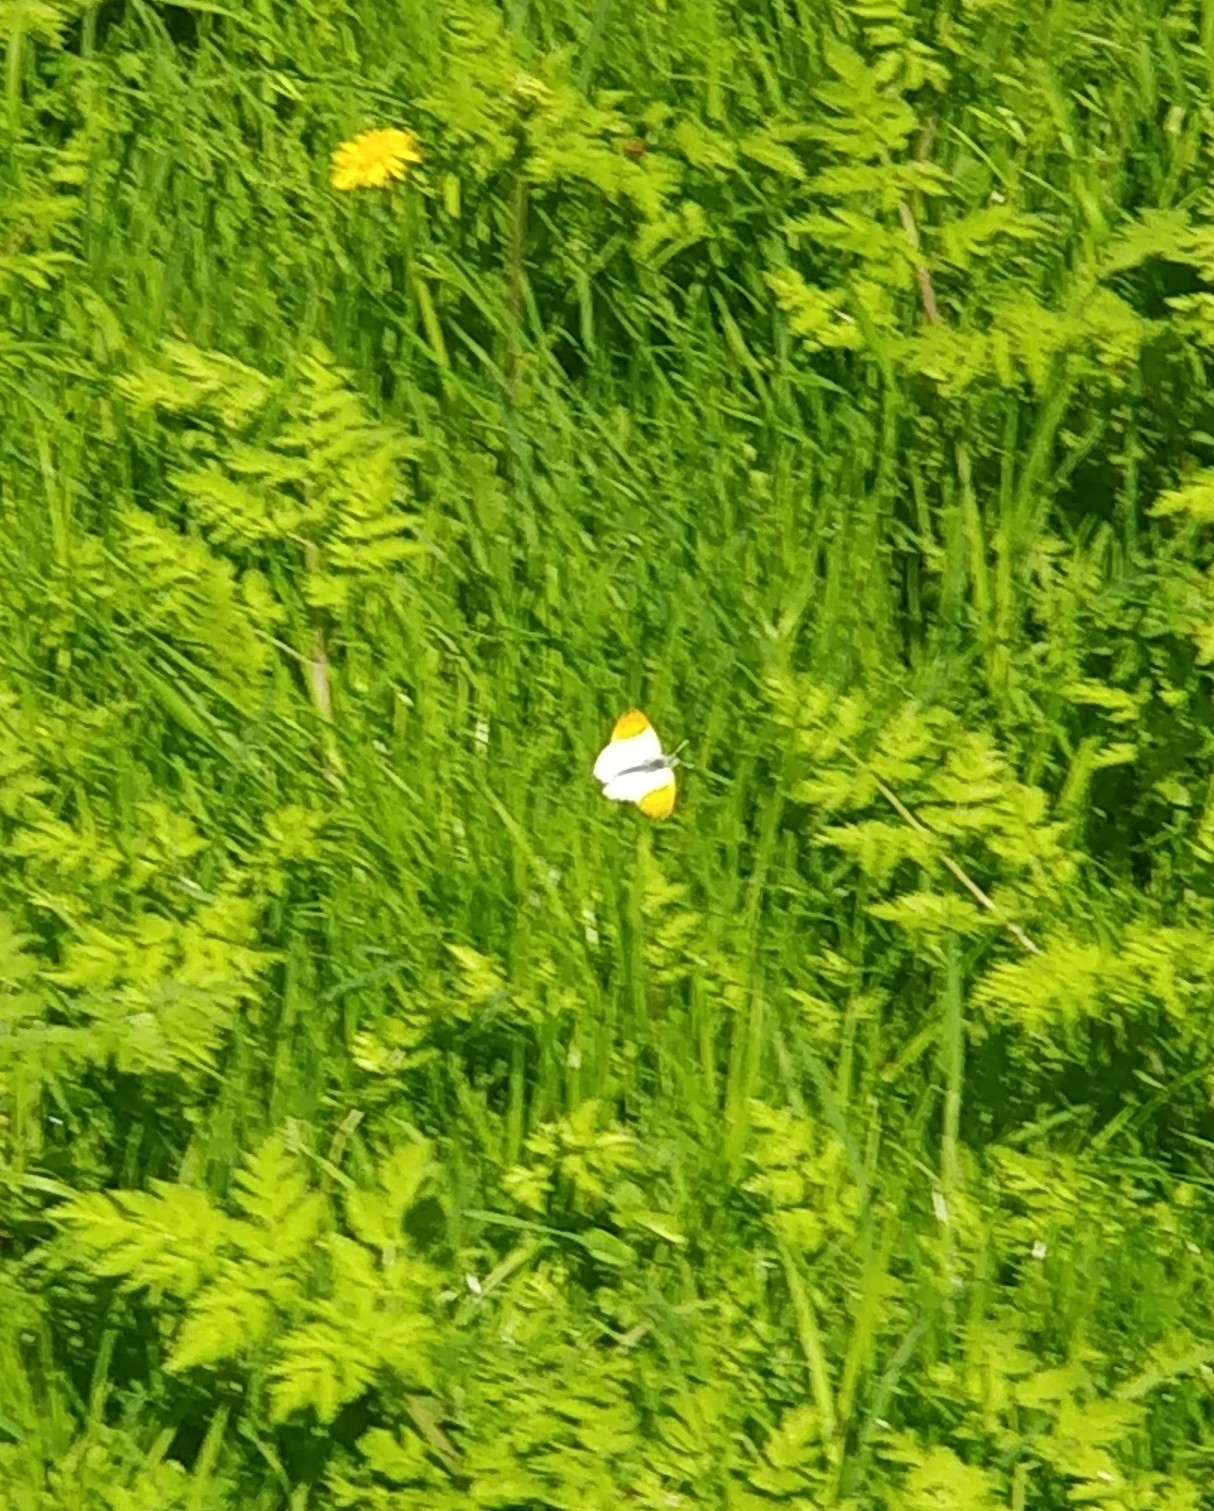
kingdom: Animalia
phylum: Arthropoda
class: Insecta
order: Lepidoptera
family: Pieridae
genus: Anthocharis
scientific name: Anthocharis cardamines
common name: Orange-tip
